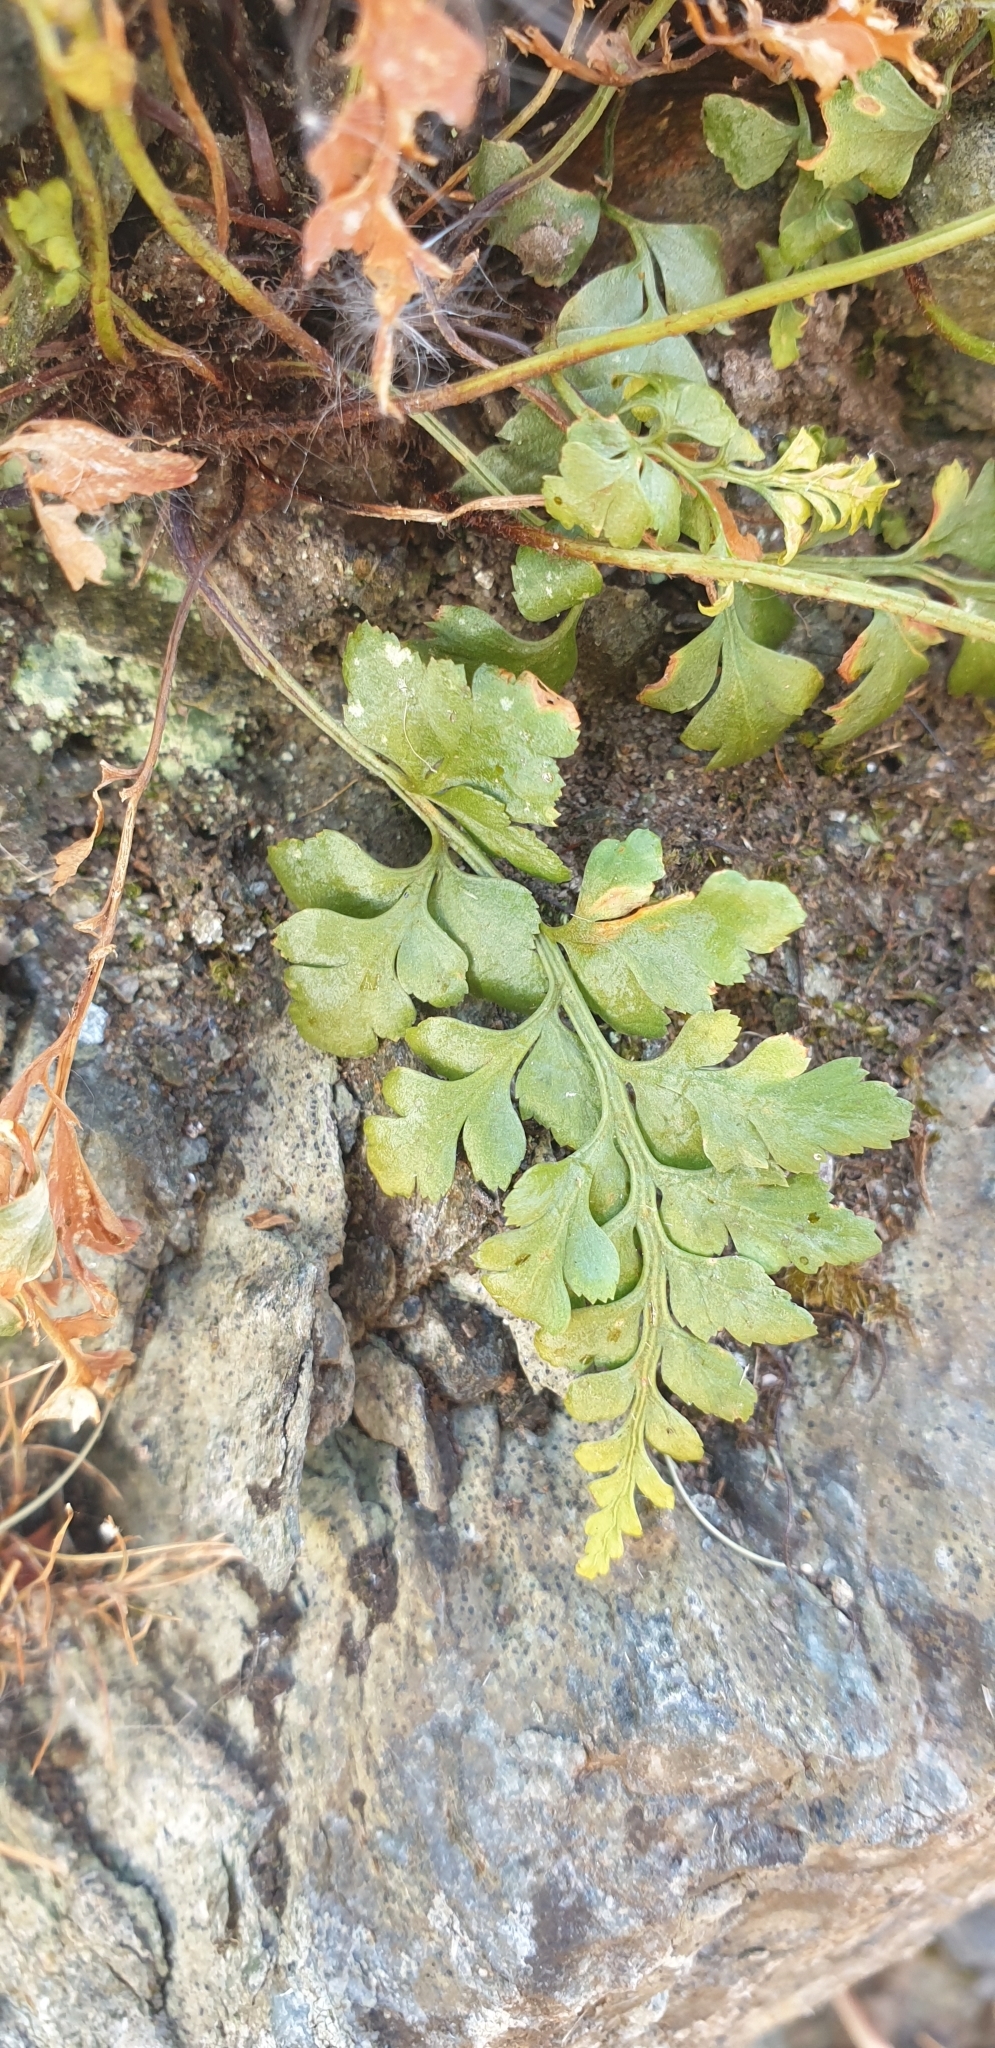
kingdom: Plantae
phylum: Tracheophyta
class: Polypodiopsida
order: Polypodiales
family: Aspleniaceae
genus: Asplenium
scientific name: Asplenium adiantum-nigrum
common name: Black spleenwort
